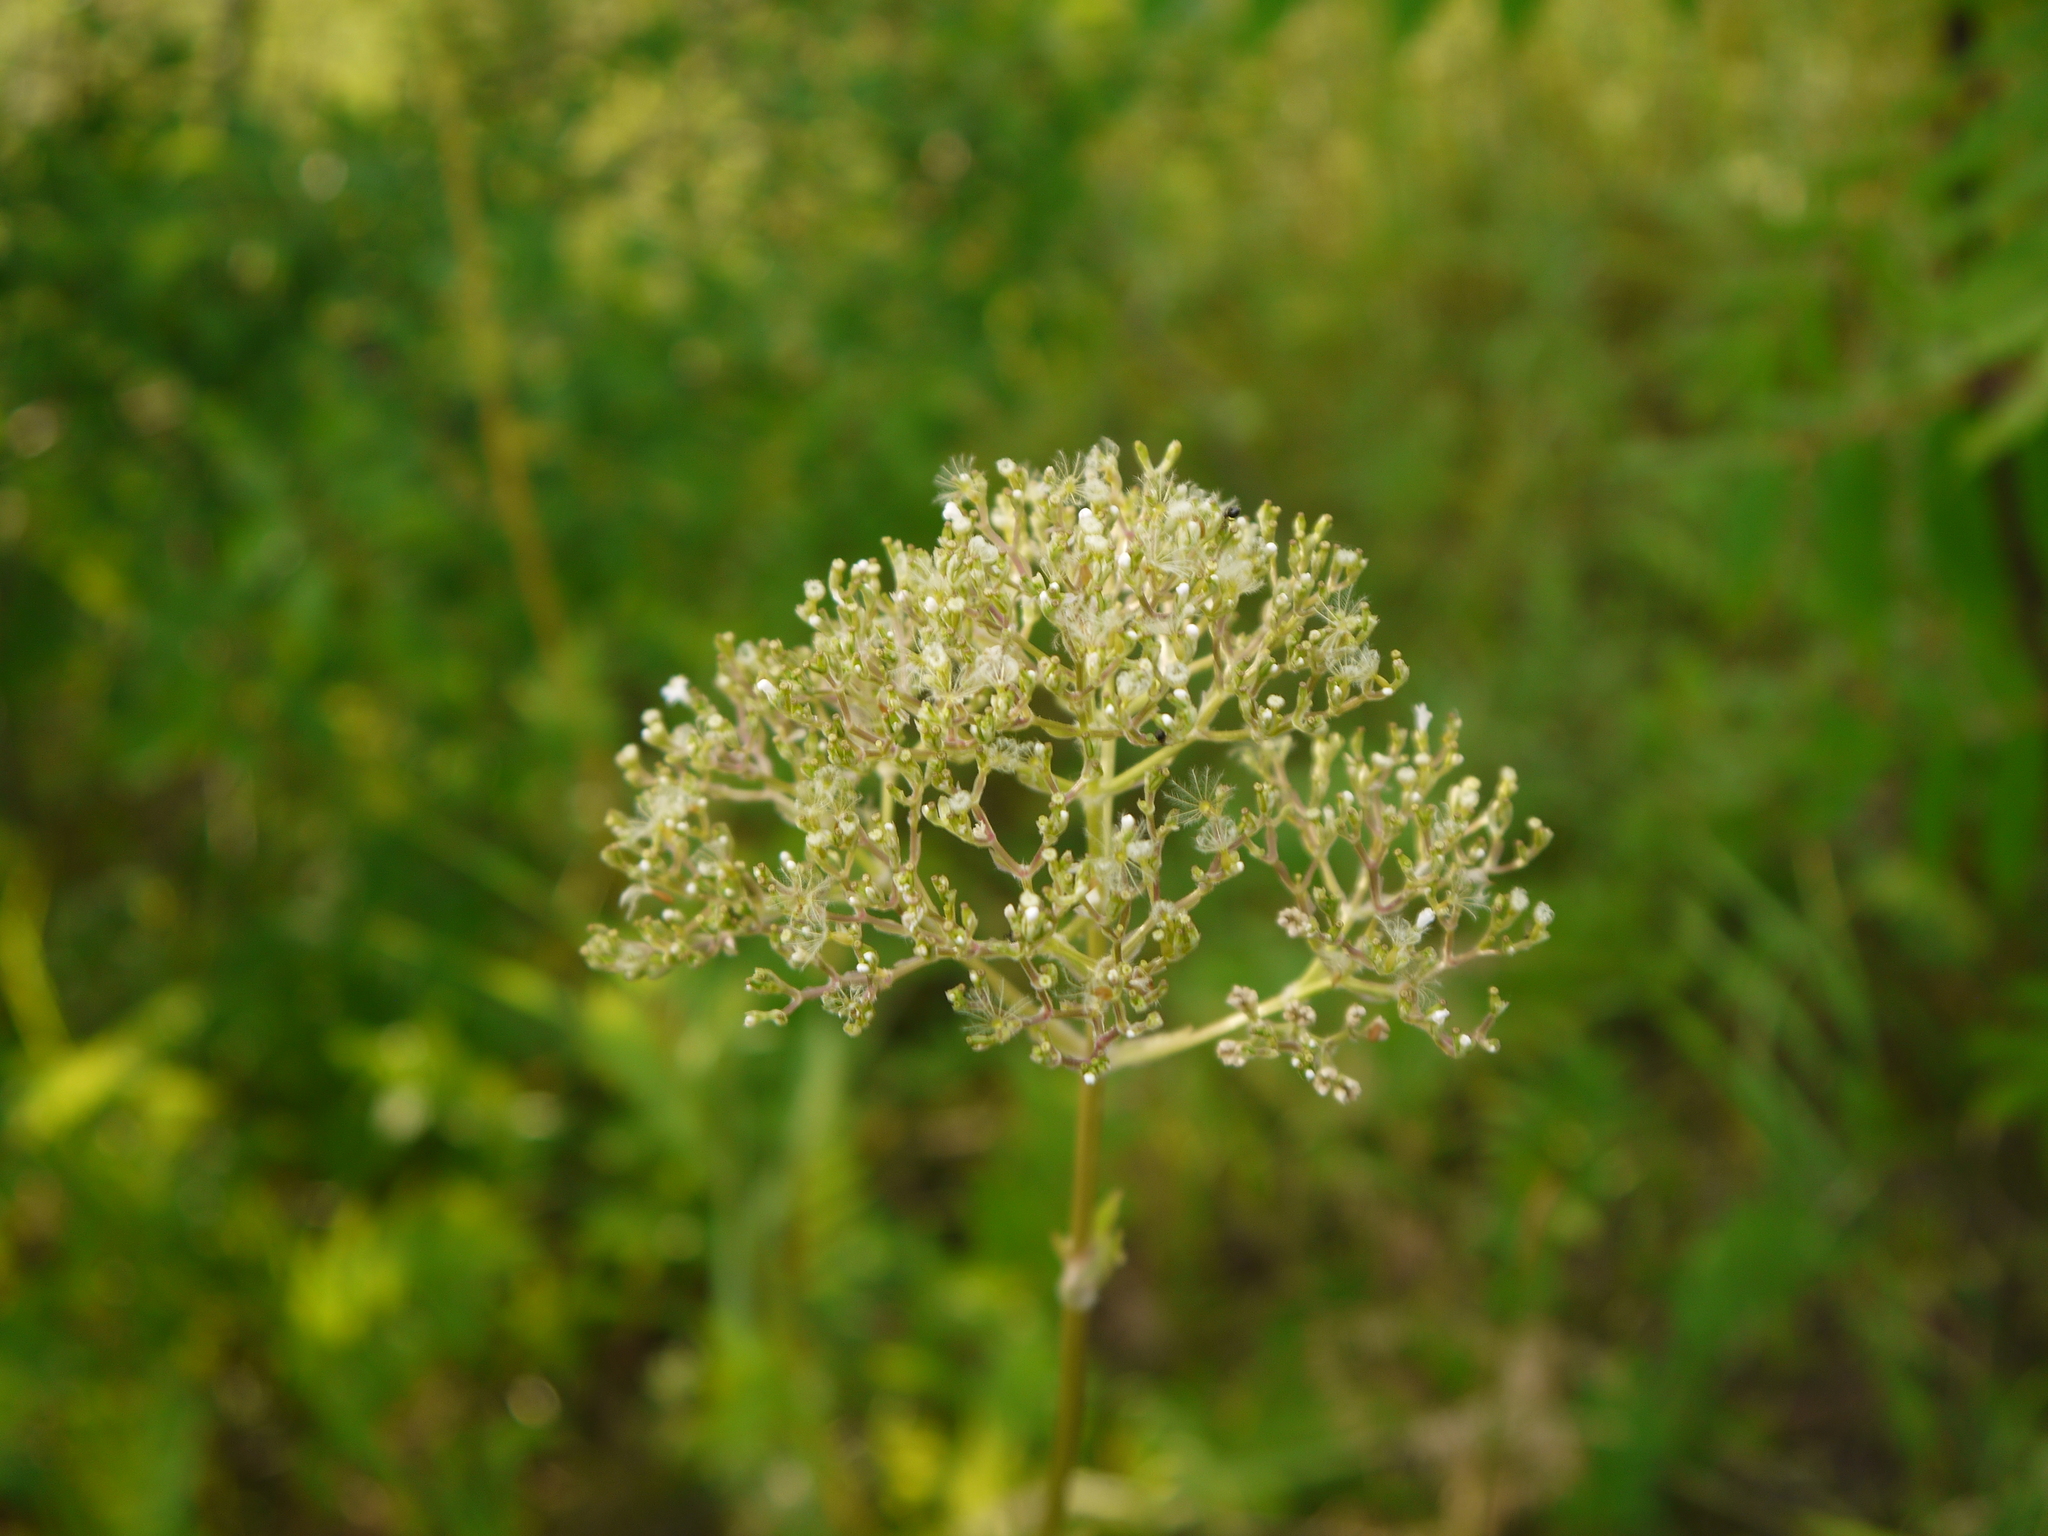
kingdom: Plantae
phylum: Tracheophyta
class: Magnoliopsida
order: Dipsacales
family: Caprifoliaceae
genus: Valeriana
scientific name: Valeriana officinalis
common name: Common valerian
